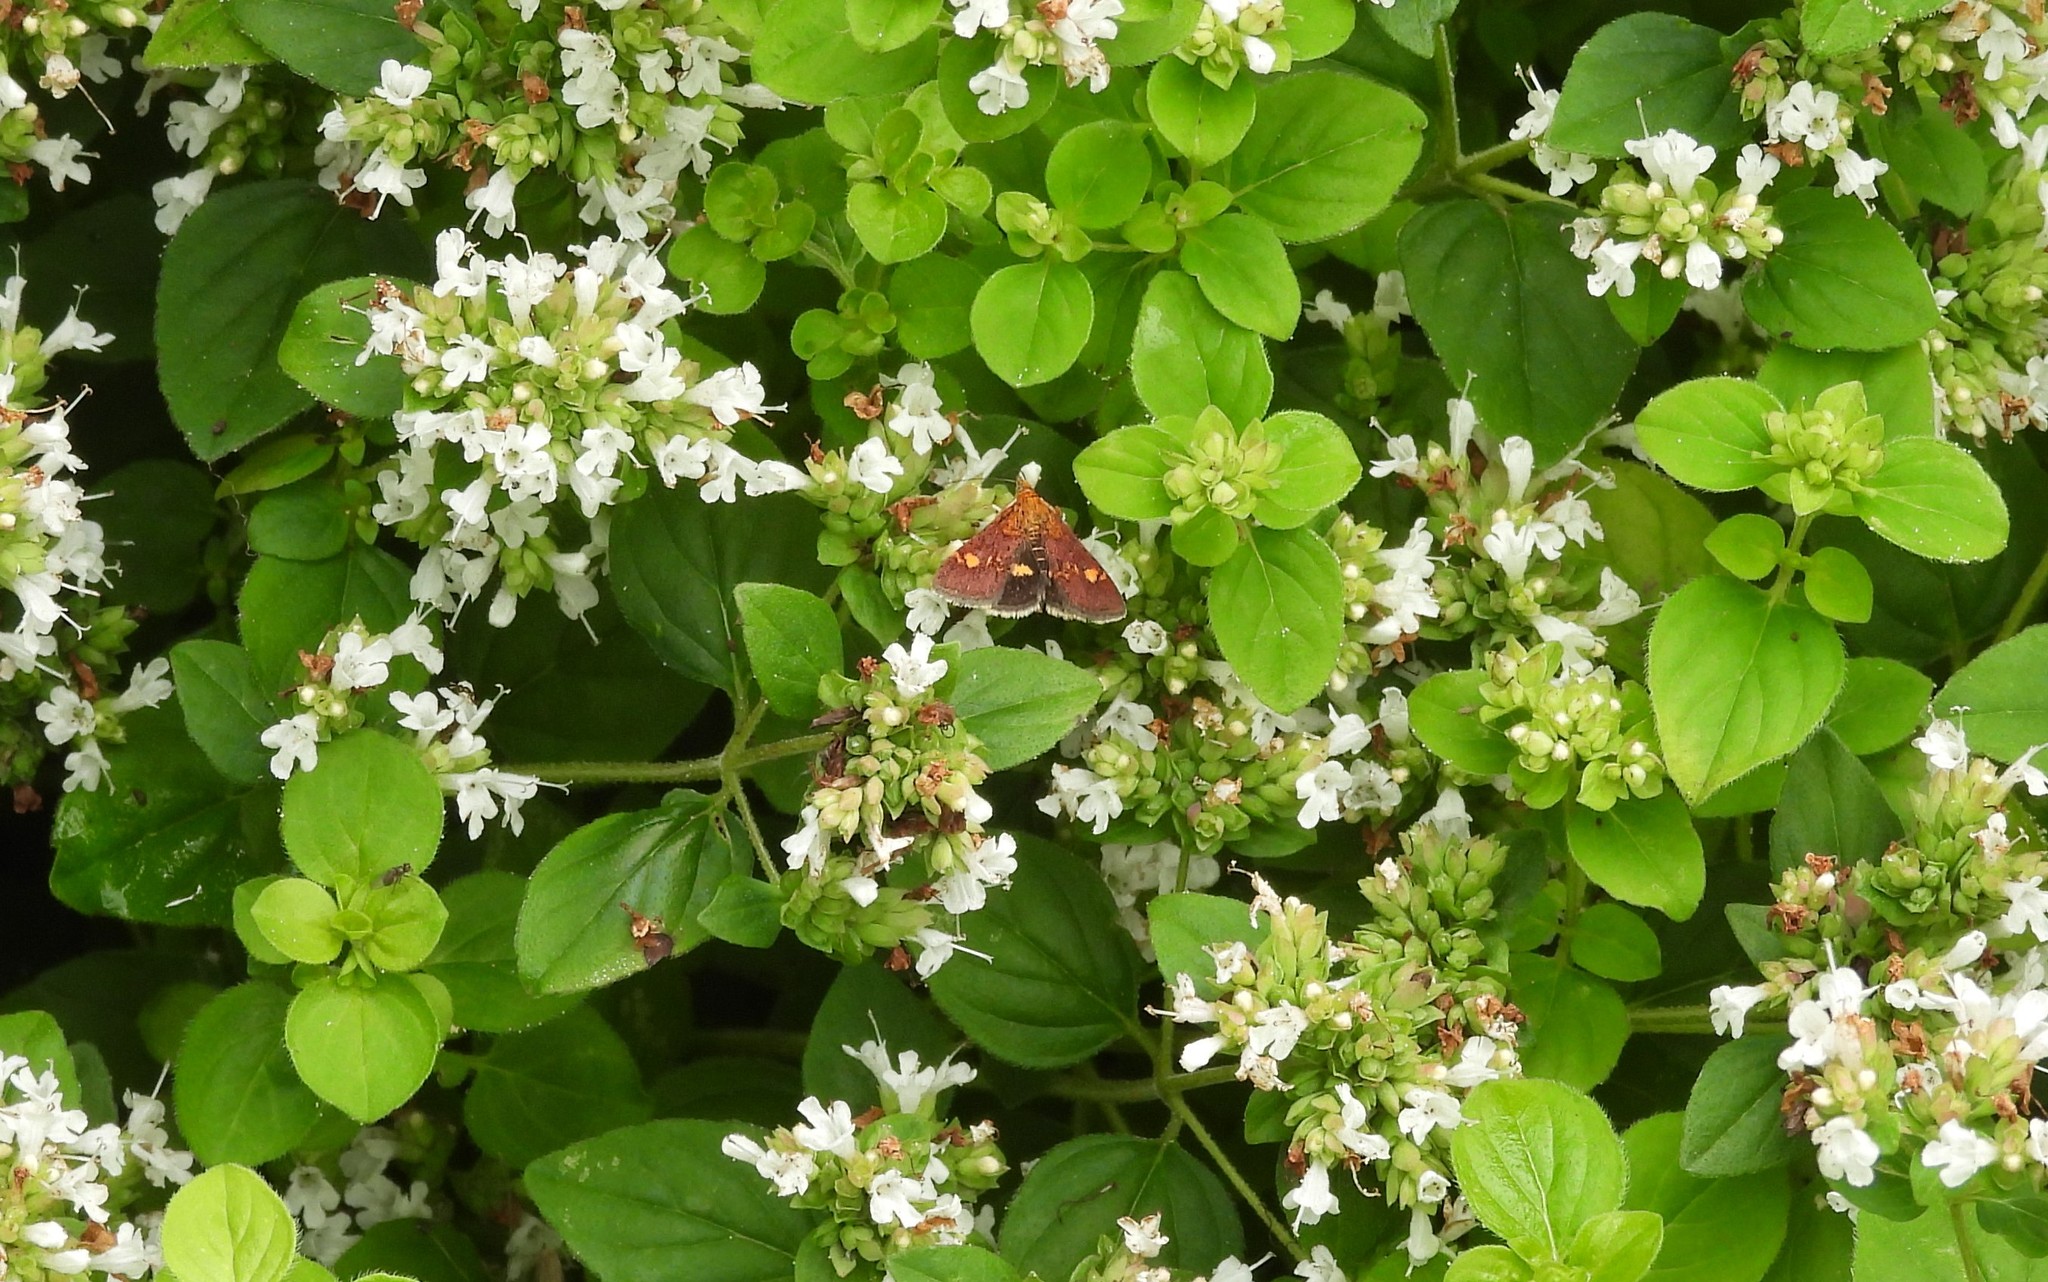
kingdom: Animalia
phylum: Arthropoda
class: Insecta
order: Lepidoptera
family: Crambidae
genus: Pyrausta
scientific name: Pyrausta aurata
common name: Small purple & gold
